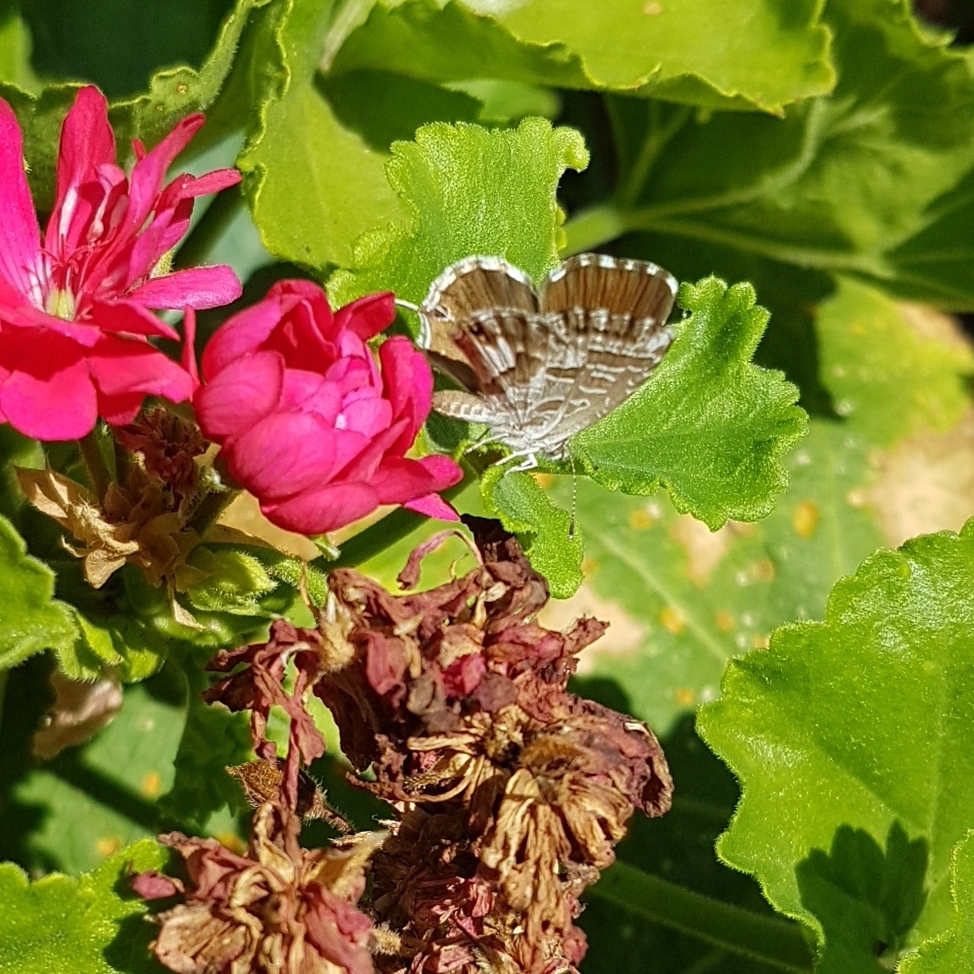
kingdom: Animalia
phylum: Arthropoda
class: Insecta
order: Lepidoptera
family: Lycaenidae
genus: Cacyreus
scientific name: Cacyreus marshalli
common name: Geranium bronze
